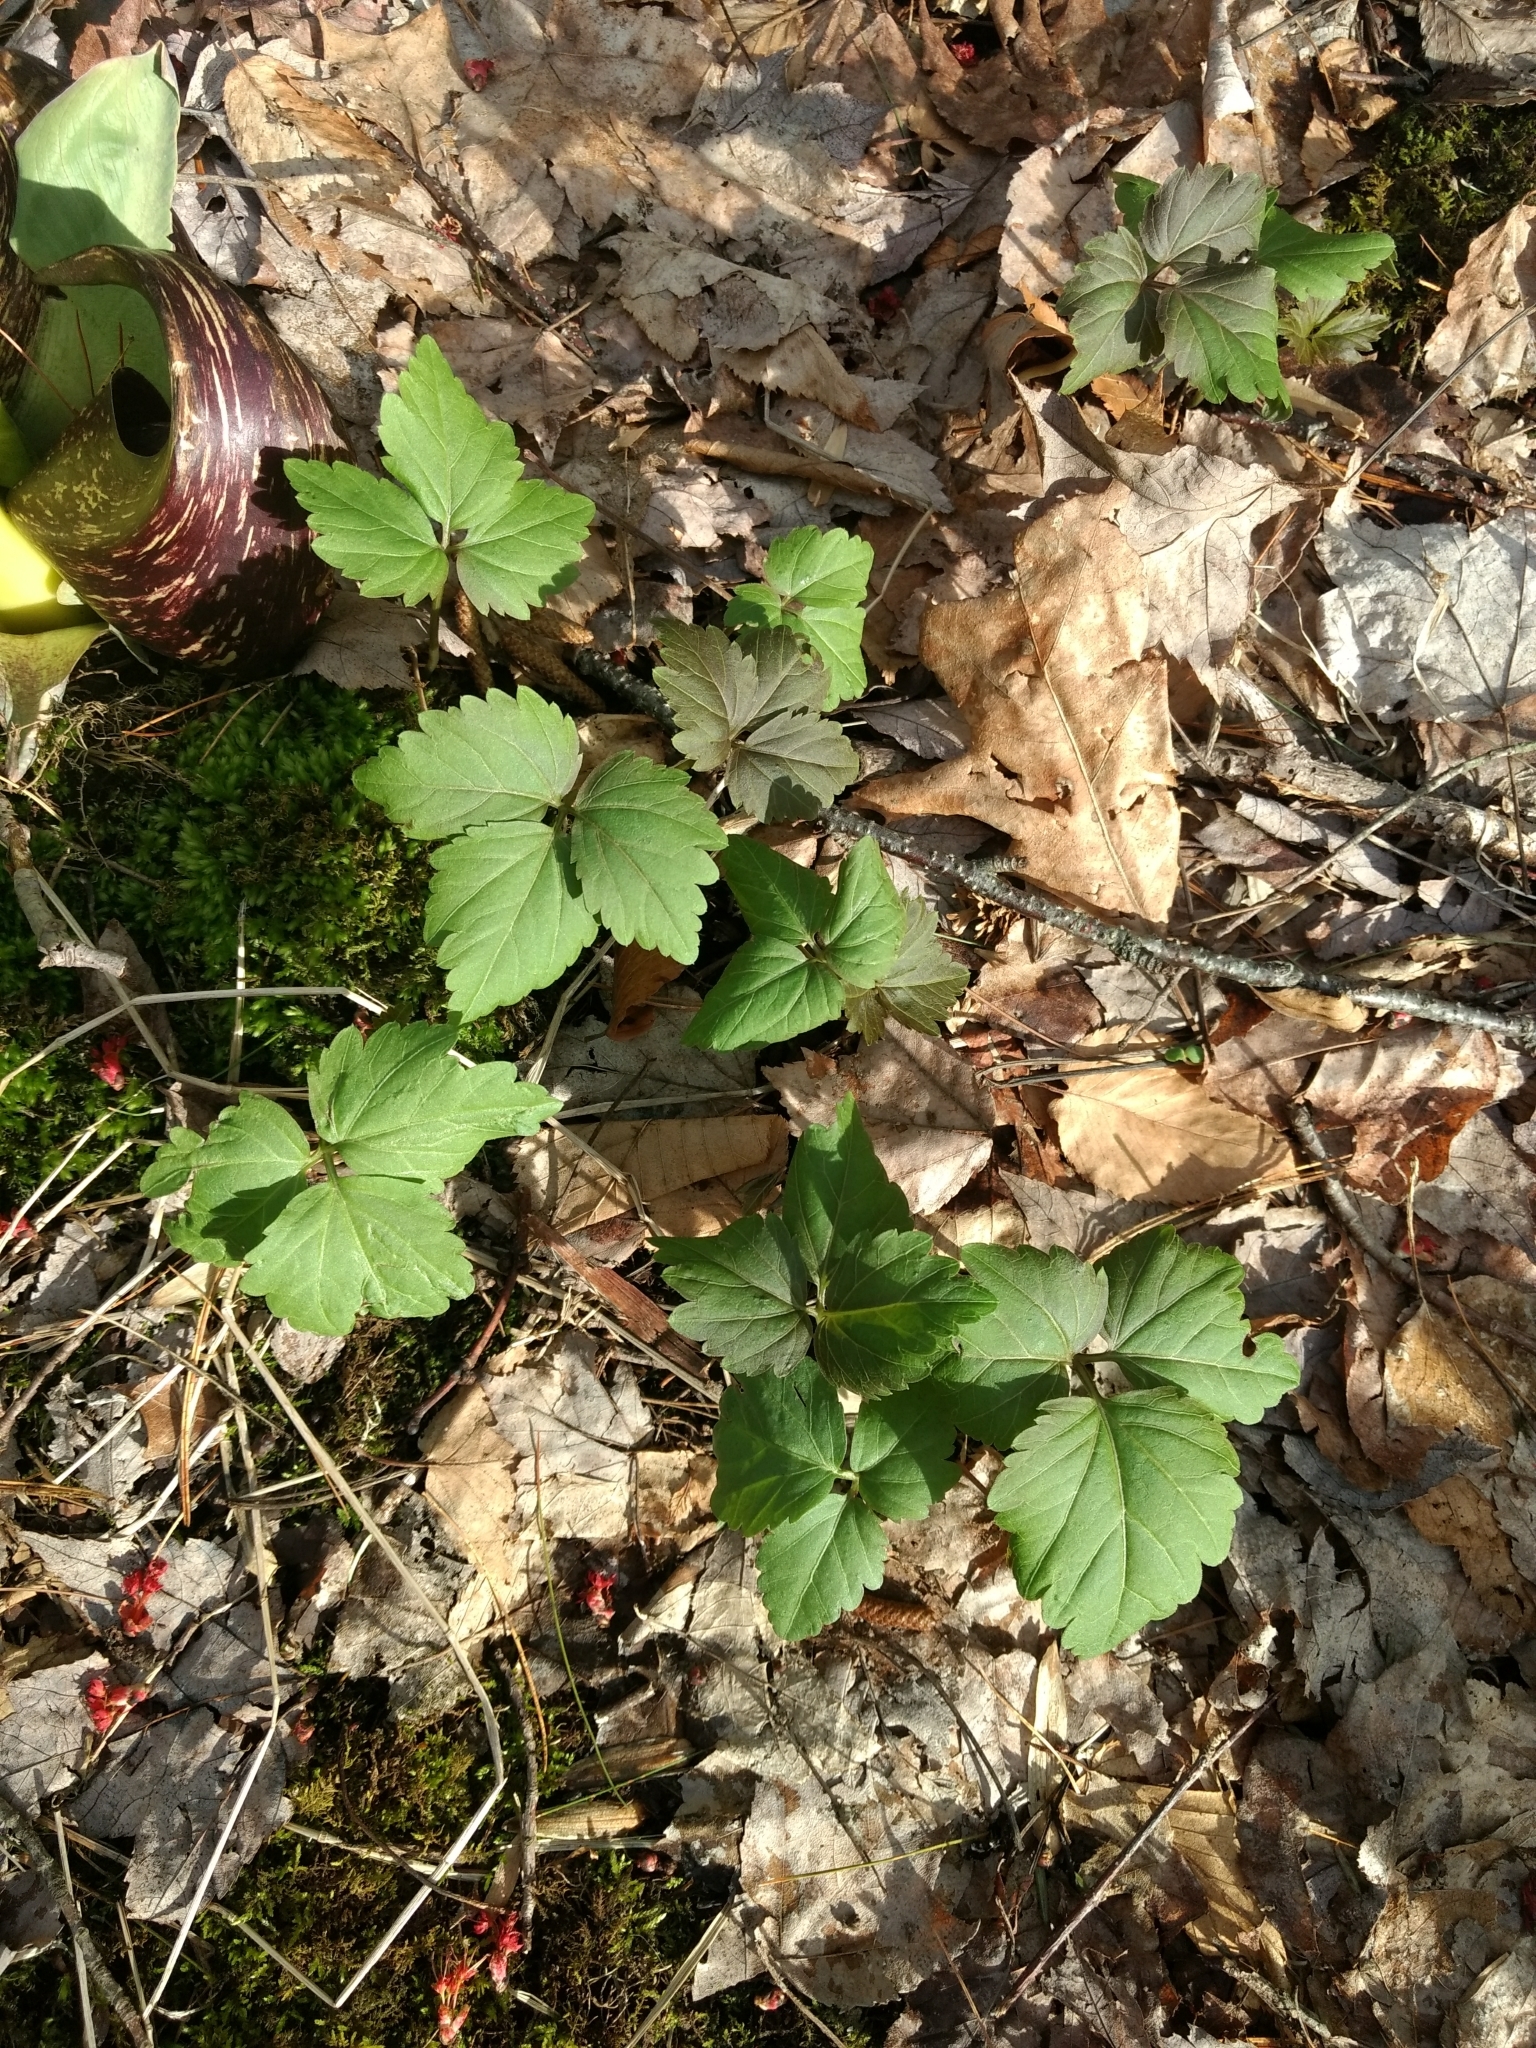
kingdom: Plantae
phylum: Tracheophyta
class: Magnoliopsida
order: Brassicales
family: Brassicaceae
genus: Cardamine
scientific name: Cardamine diphylla
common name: Broad-leaved toothwort
